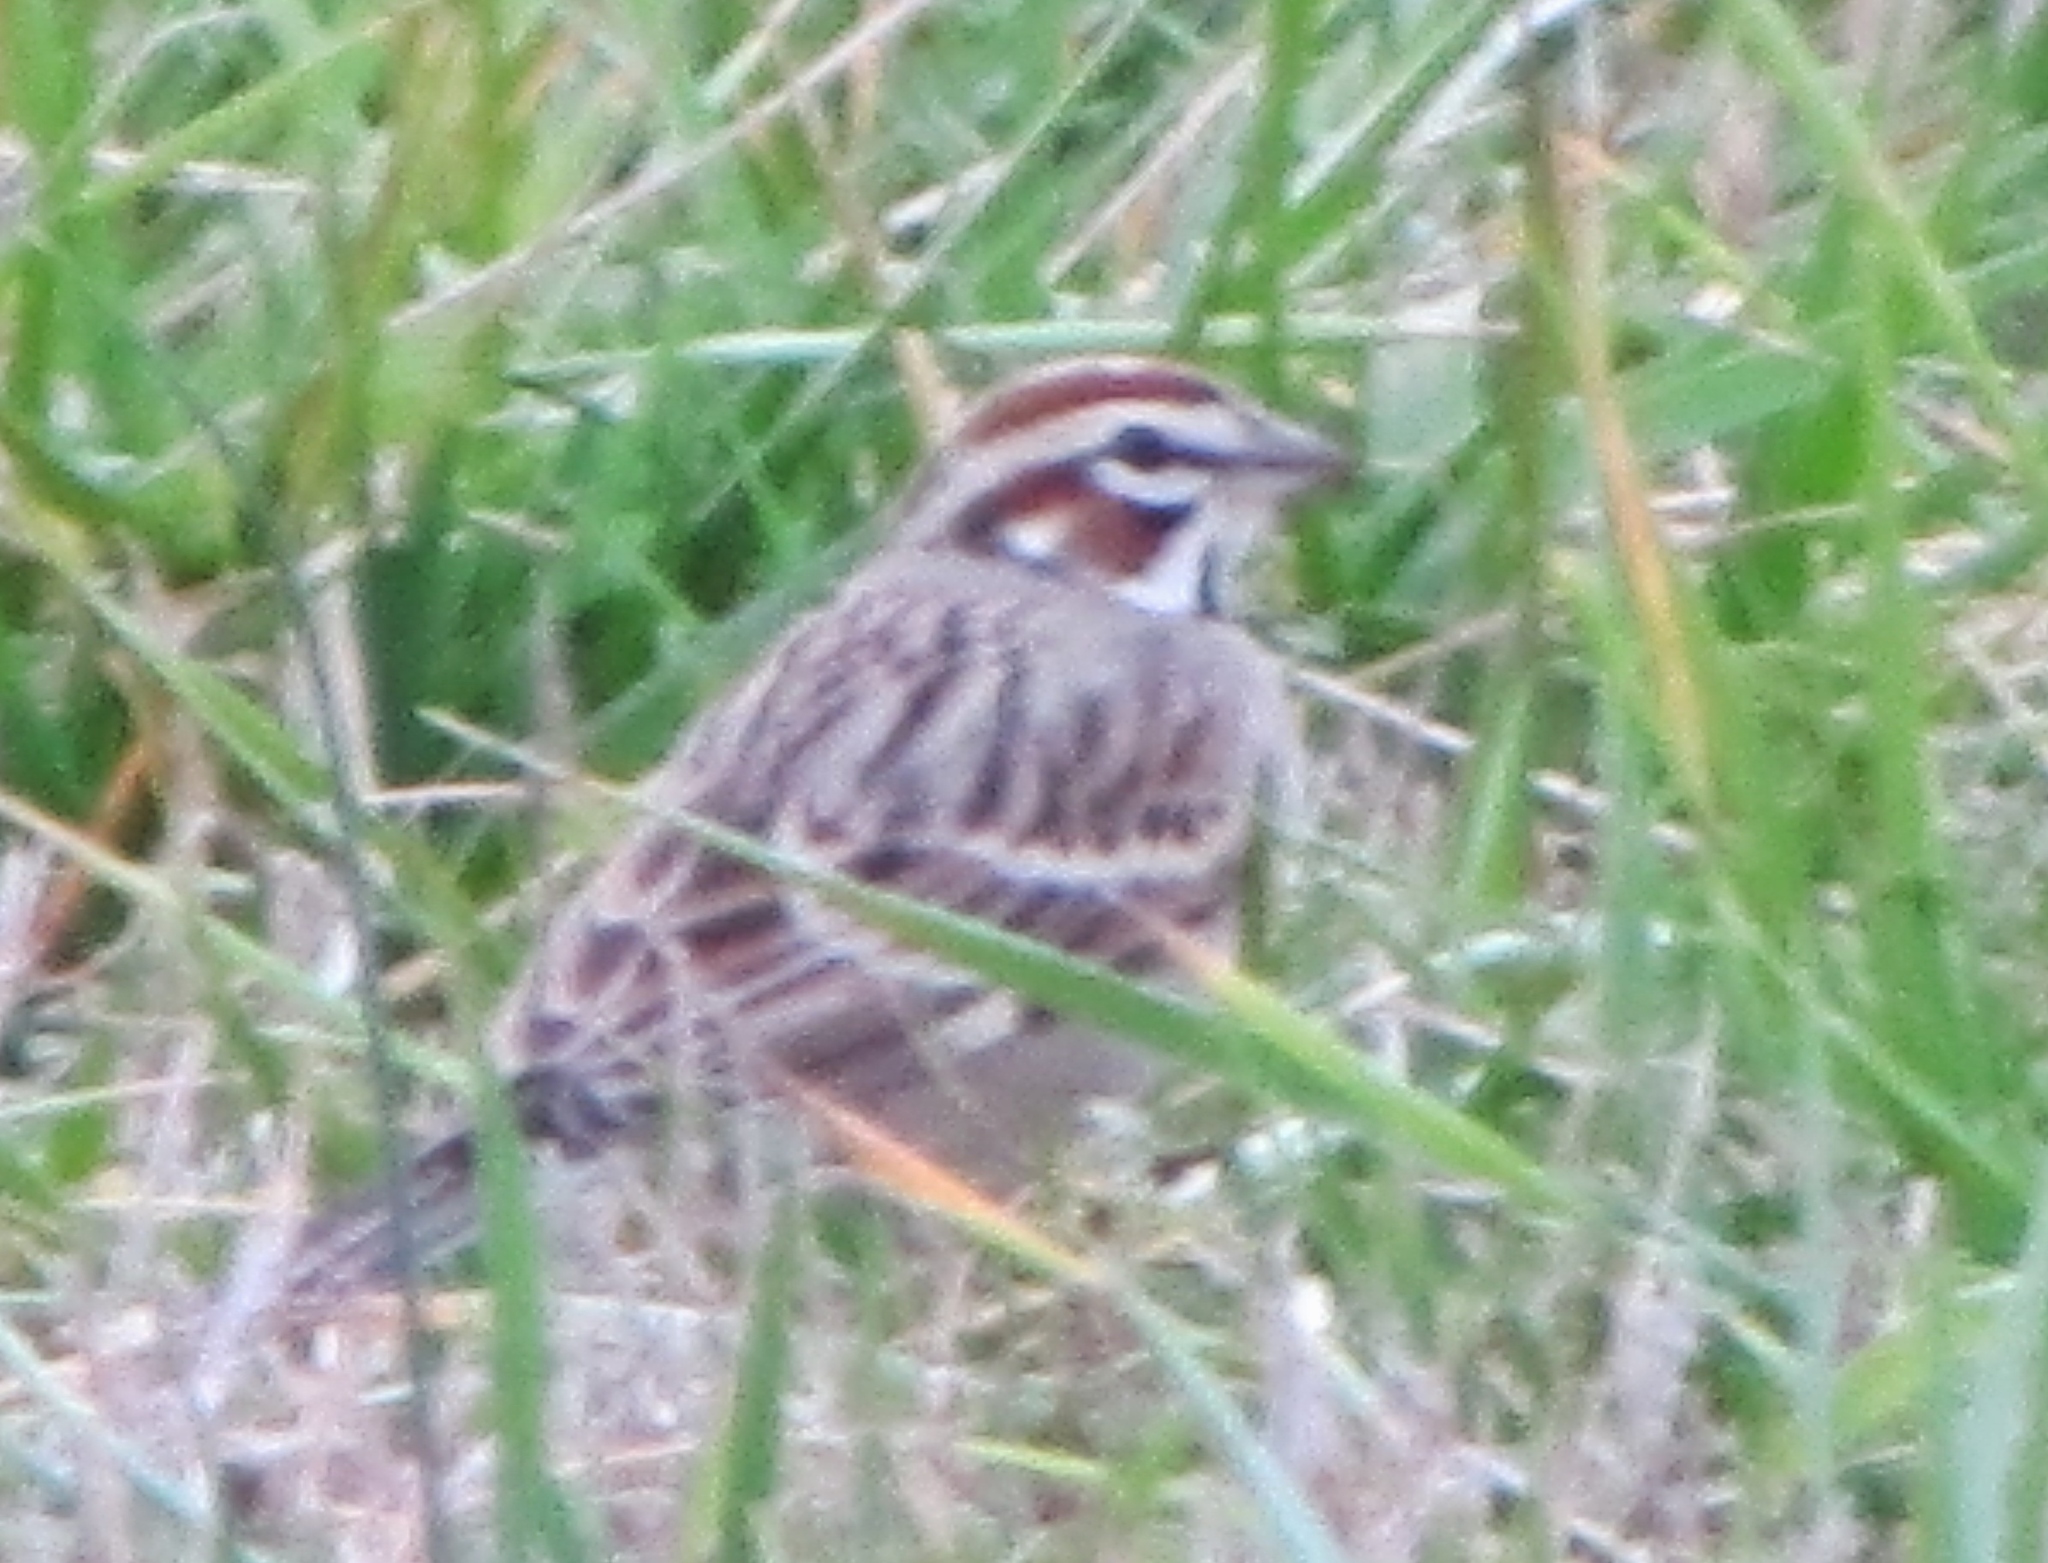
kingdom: Animalia
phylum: Chordata
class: Aves
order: Passeriformes
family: Passerellidae
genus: Chondestes
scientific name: Chondestes grammacus
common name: Lark sparrow
